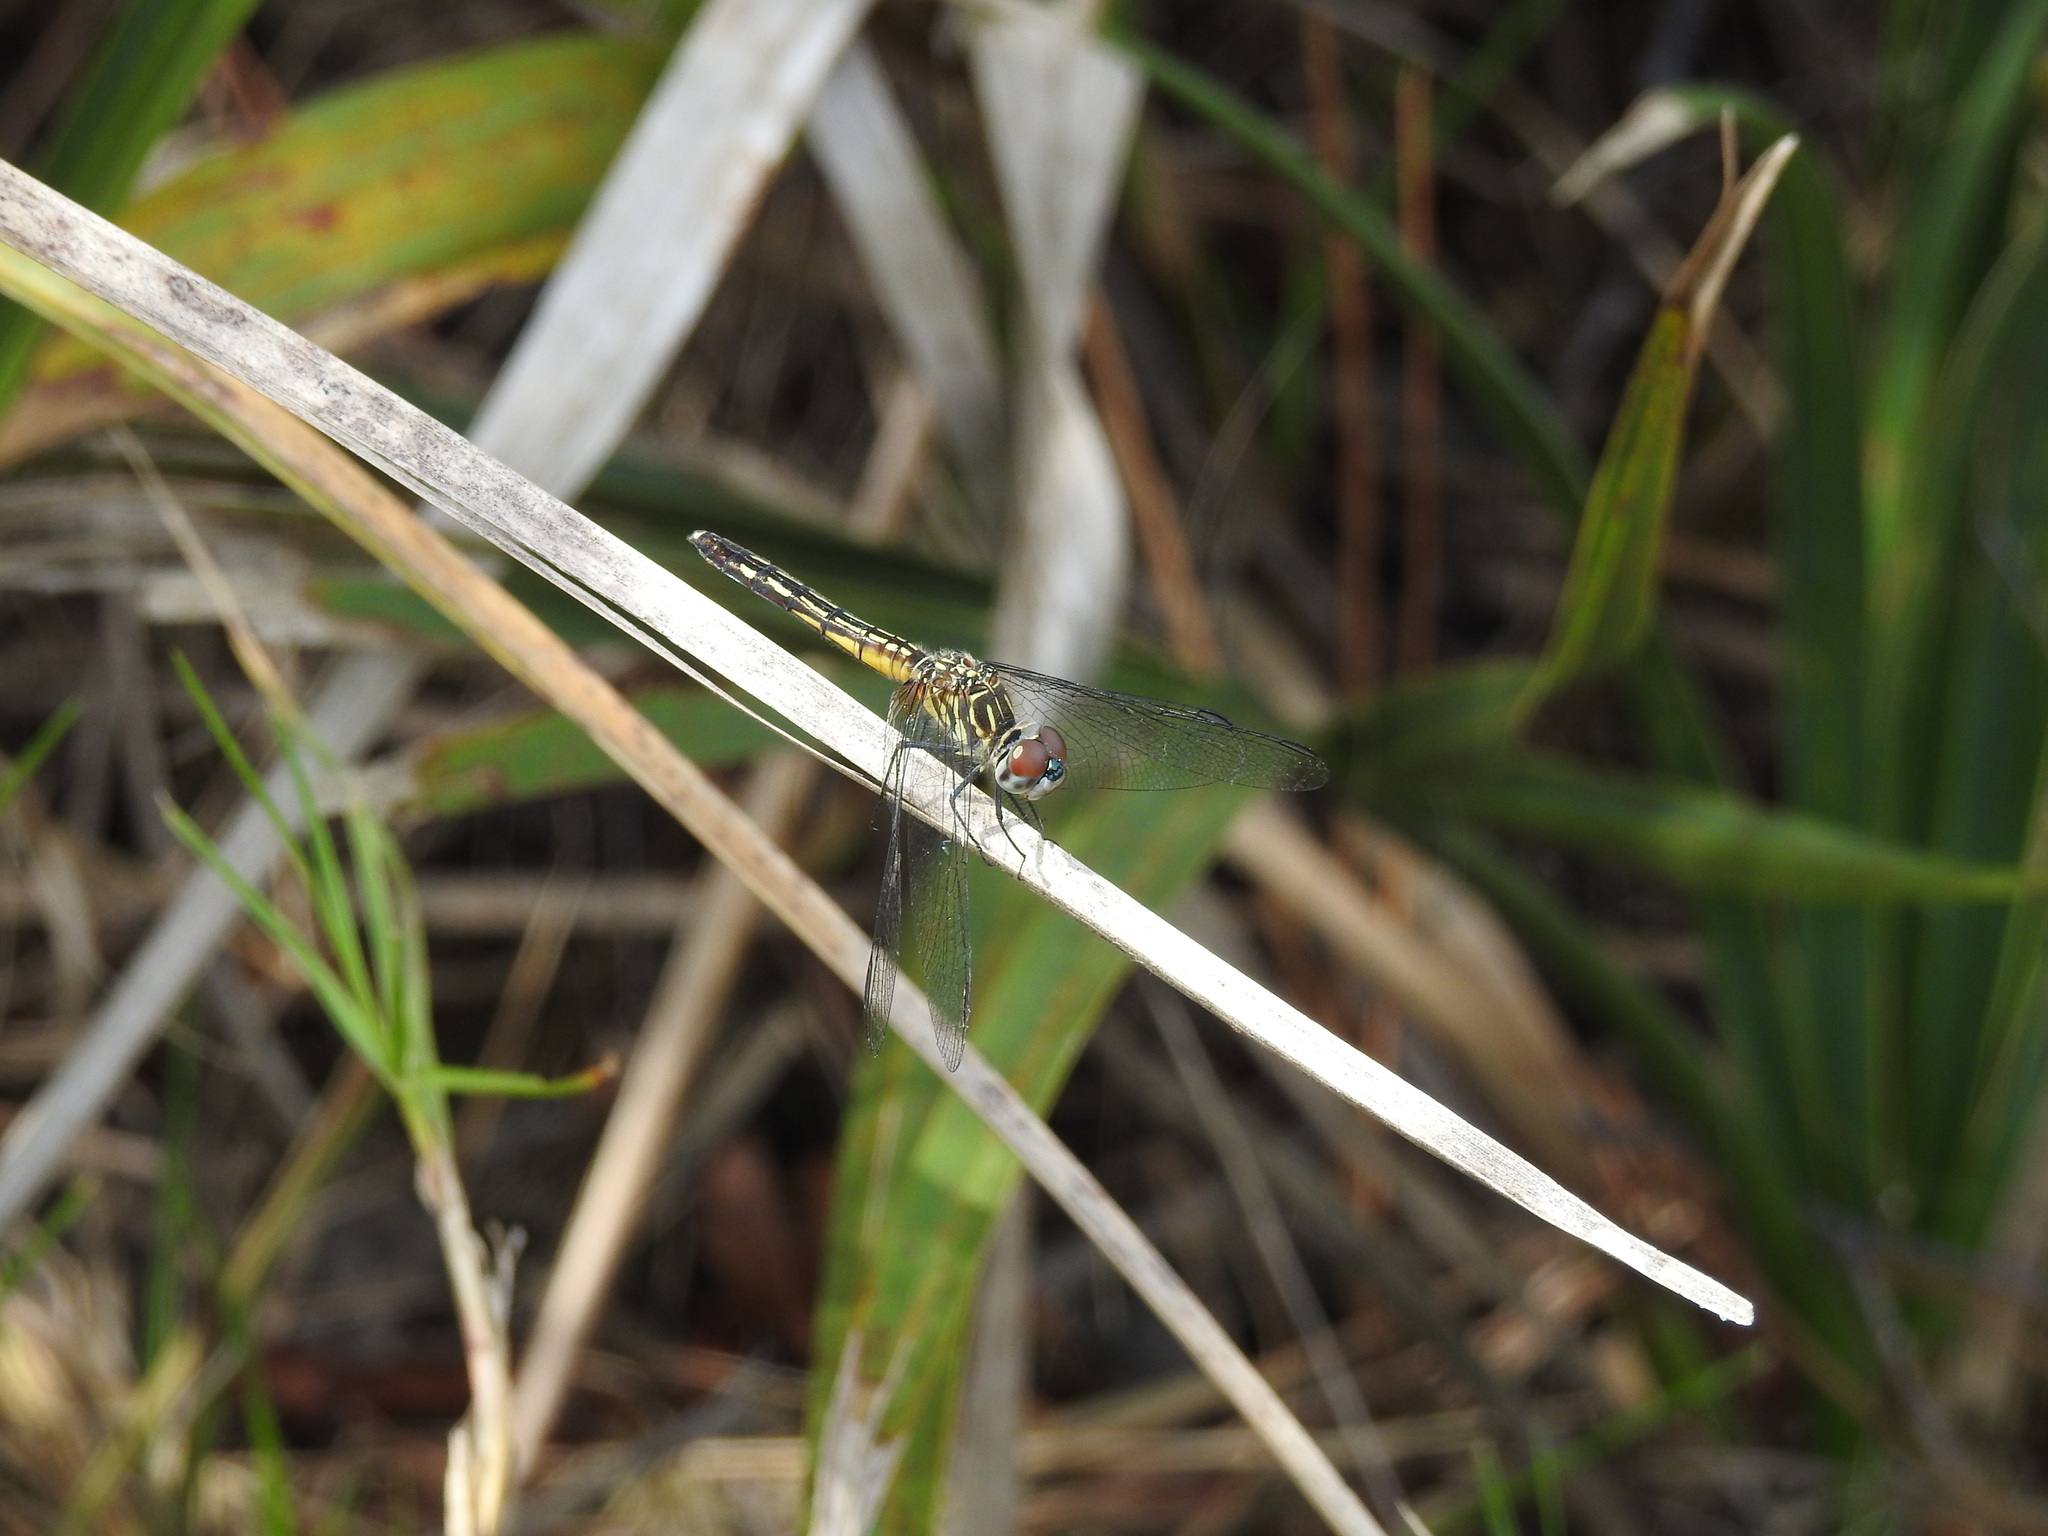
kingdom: Animalia
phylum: Arthropoda
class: Insecta
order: Odonata
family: Libellulidae
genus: Pachydiplax
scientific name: Pachydiplax longipennis
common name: Blue dasher
